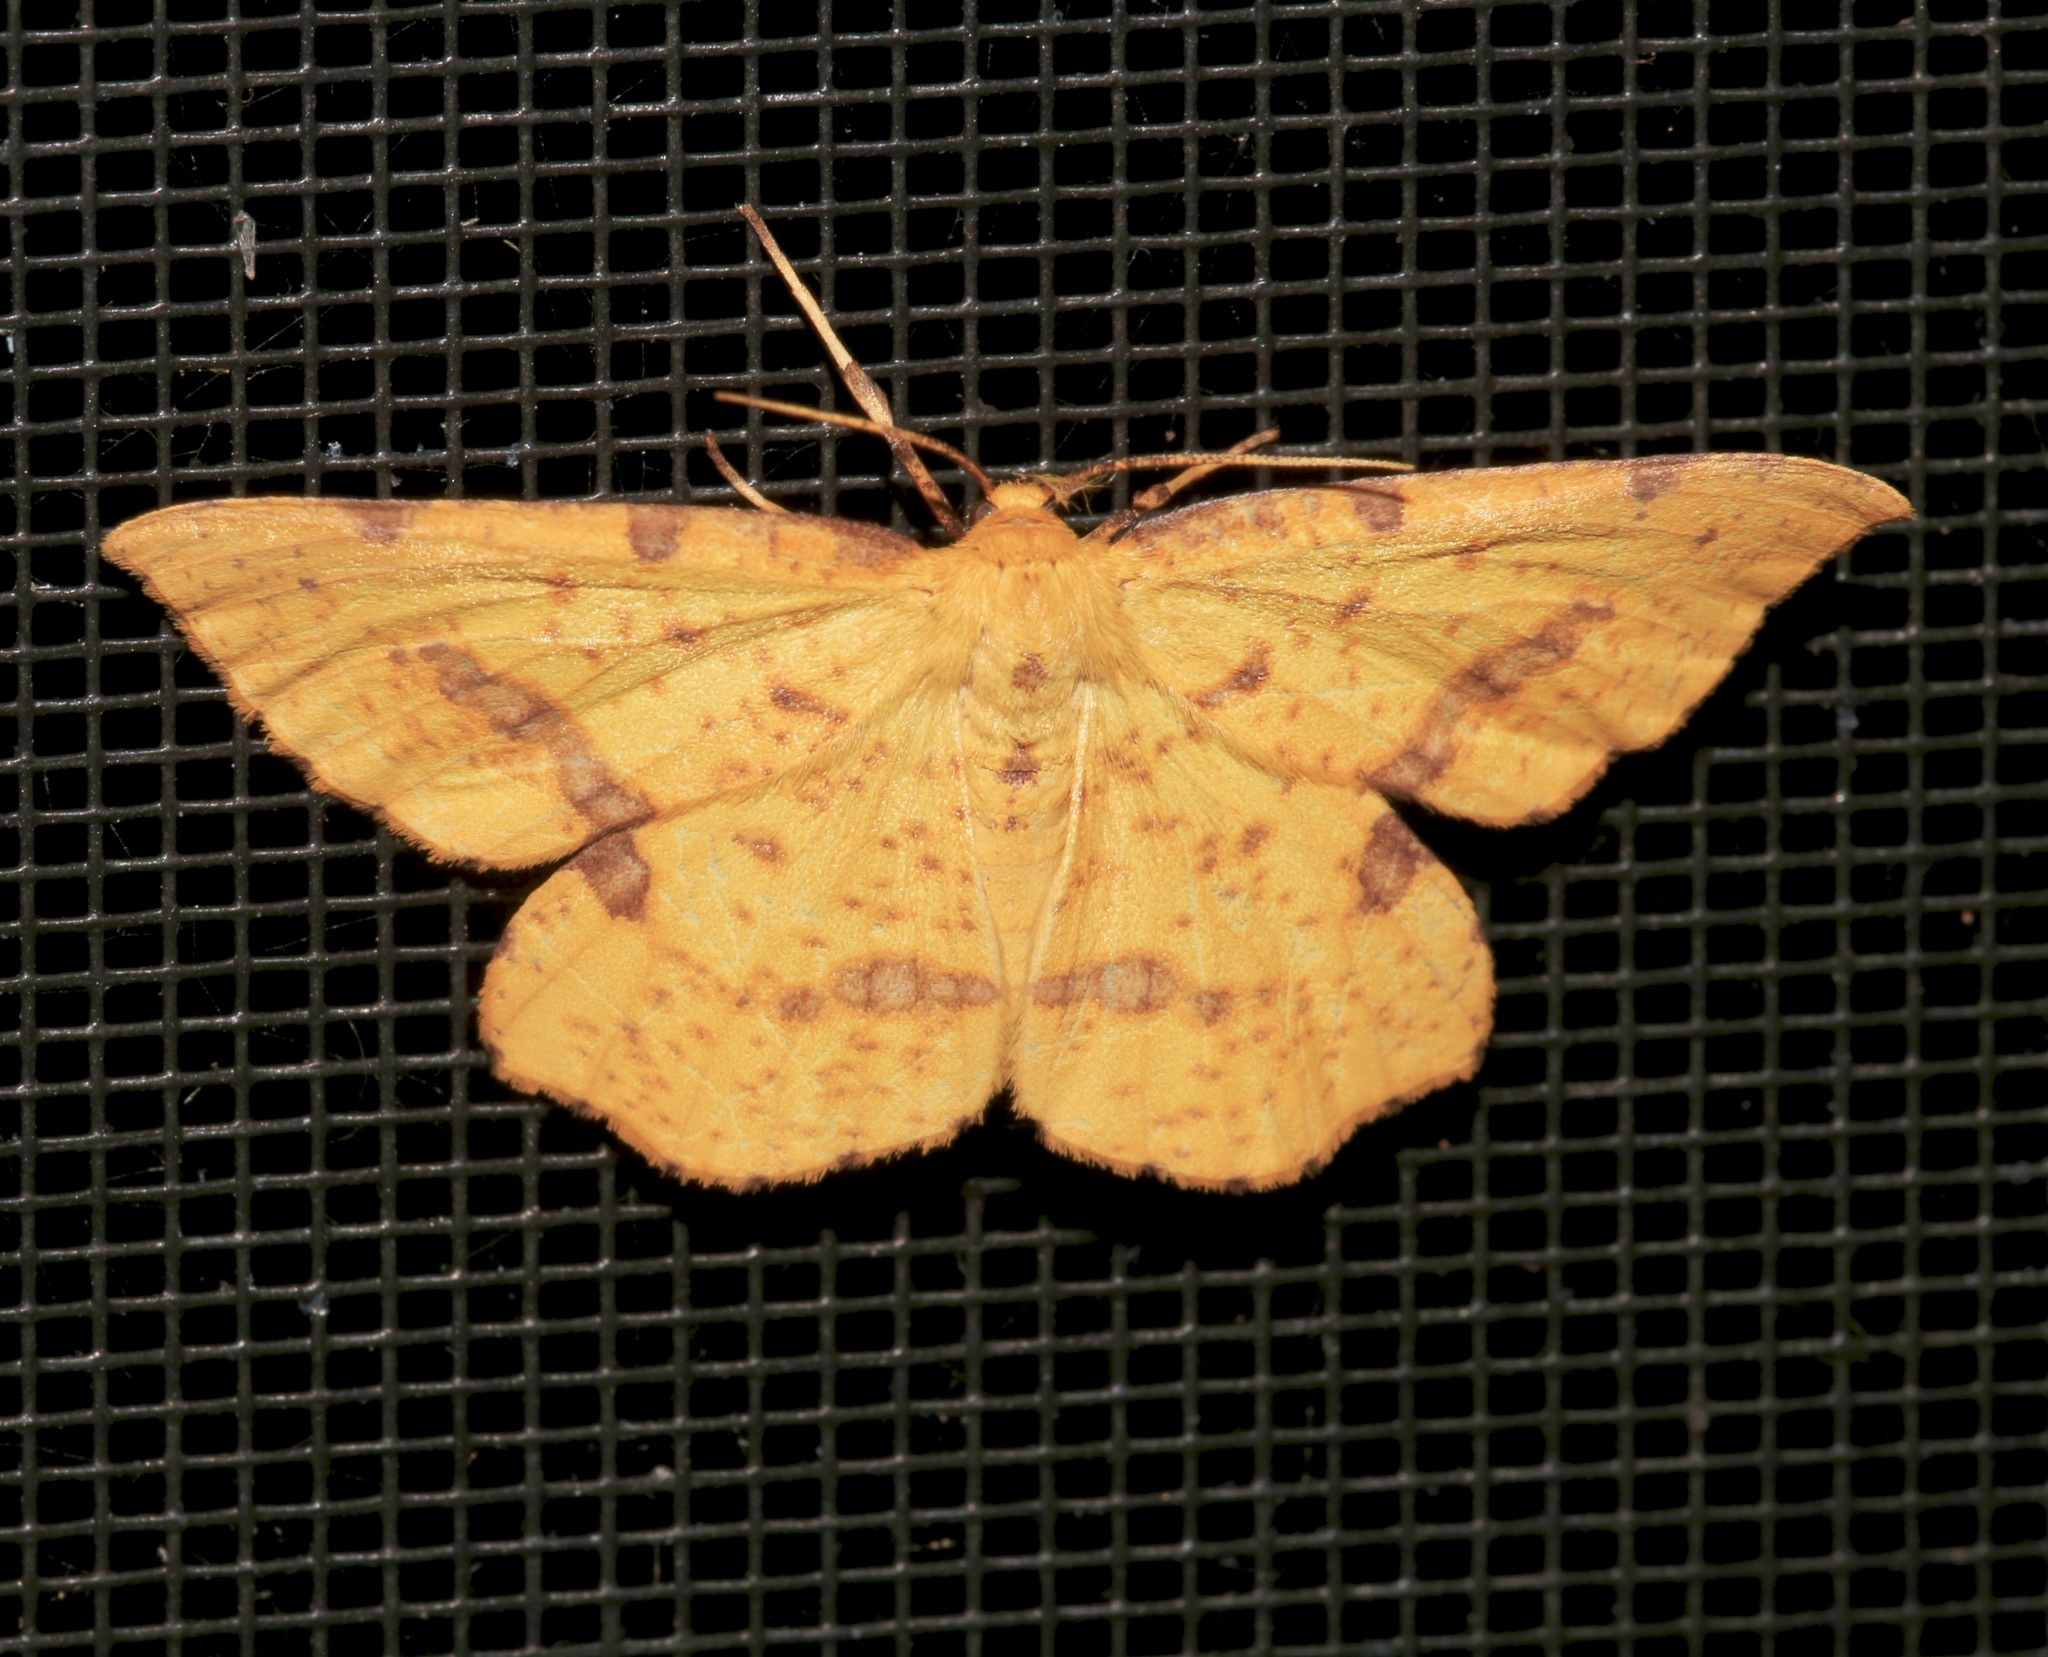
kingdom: Animalia
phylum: Arthropoda
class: Insecta
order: Lepidoptera
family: Geometridae
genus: Xanthotype
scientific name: Xanthotype
